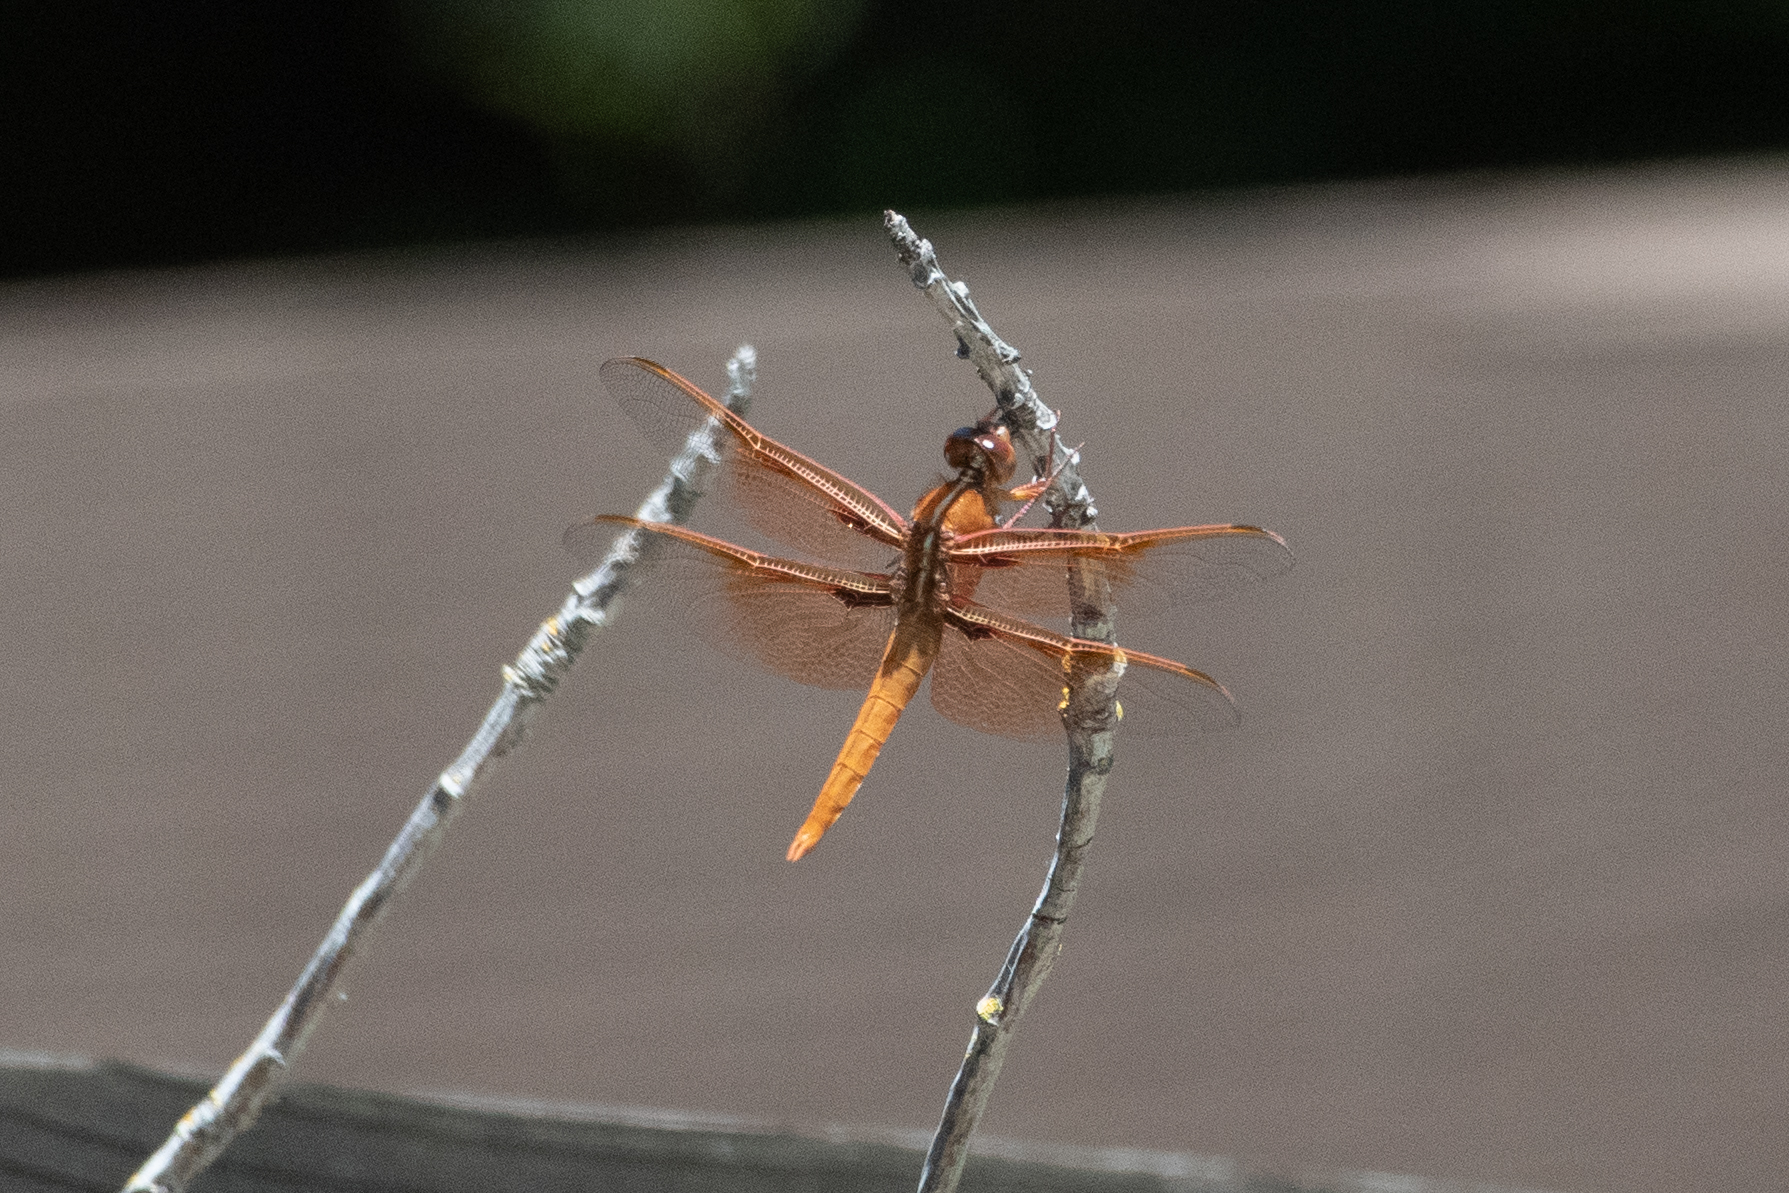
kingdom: Animalia
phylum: Arthropoda
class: Insecta
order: Odonata
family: Libellulidae
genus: Libellula
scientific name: Libellula saturata
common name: Flame skimmer
